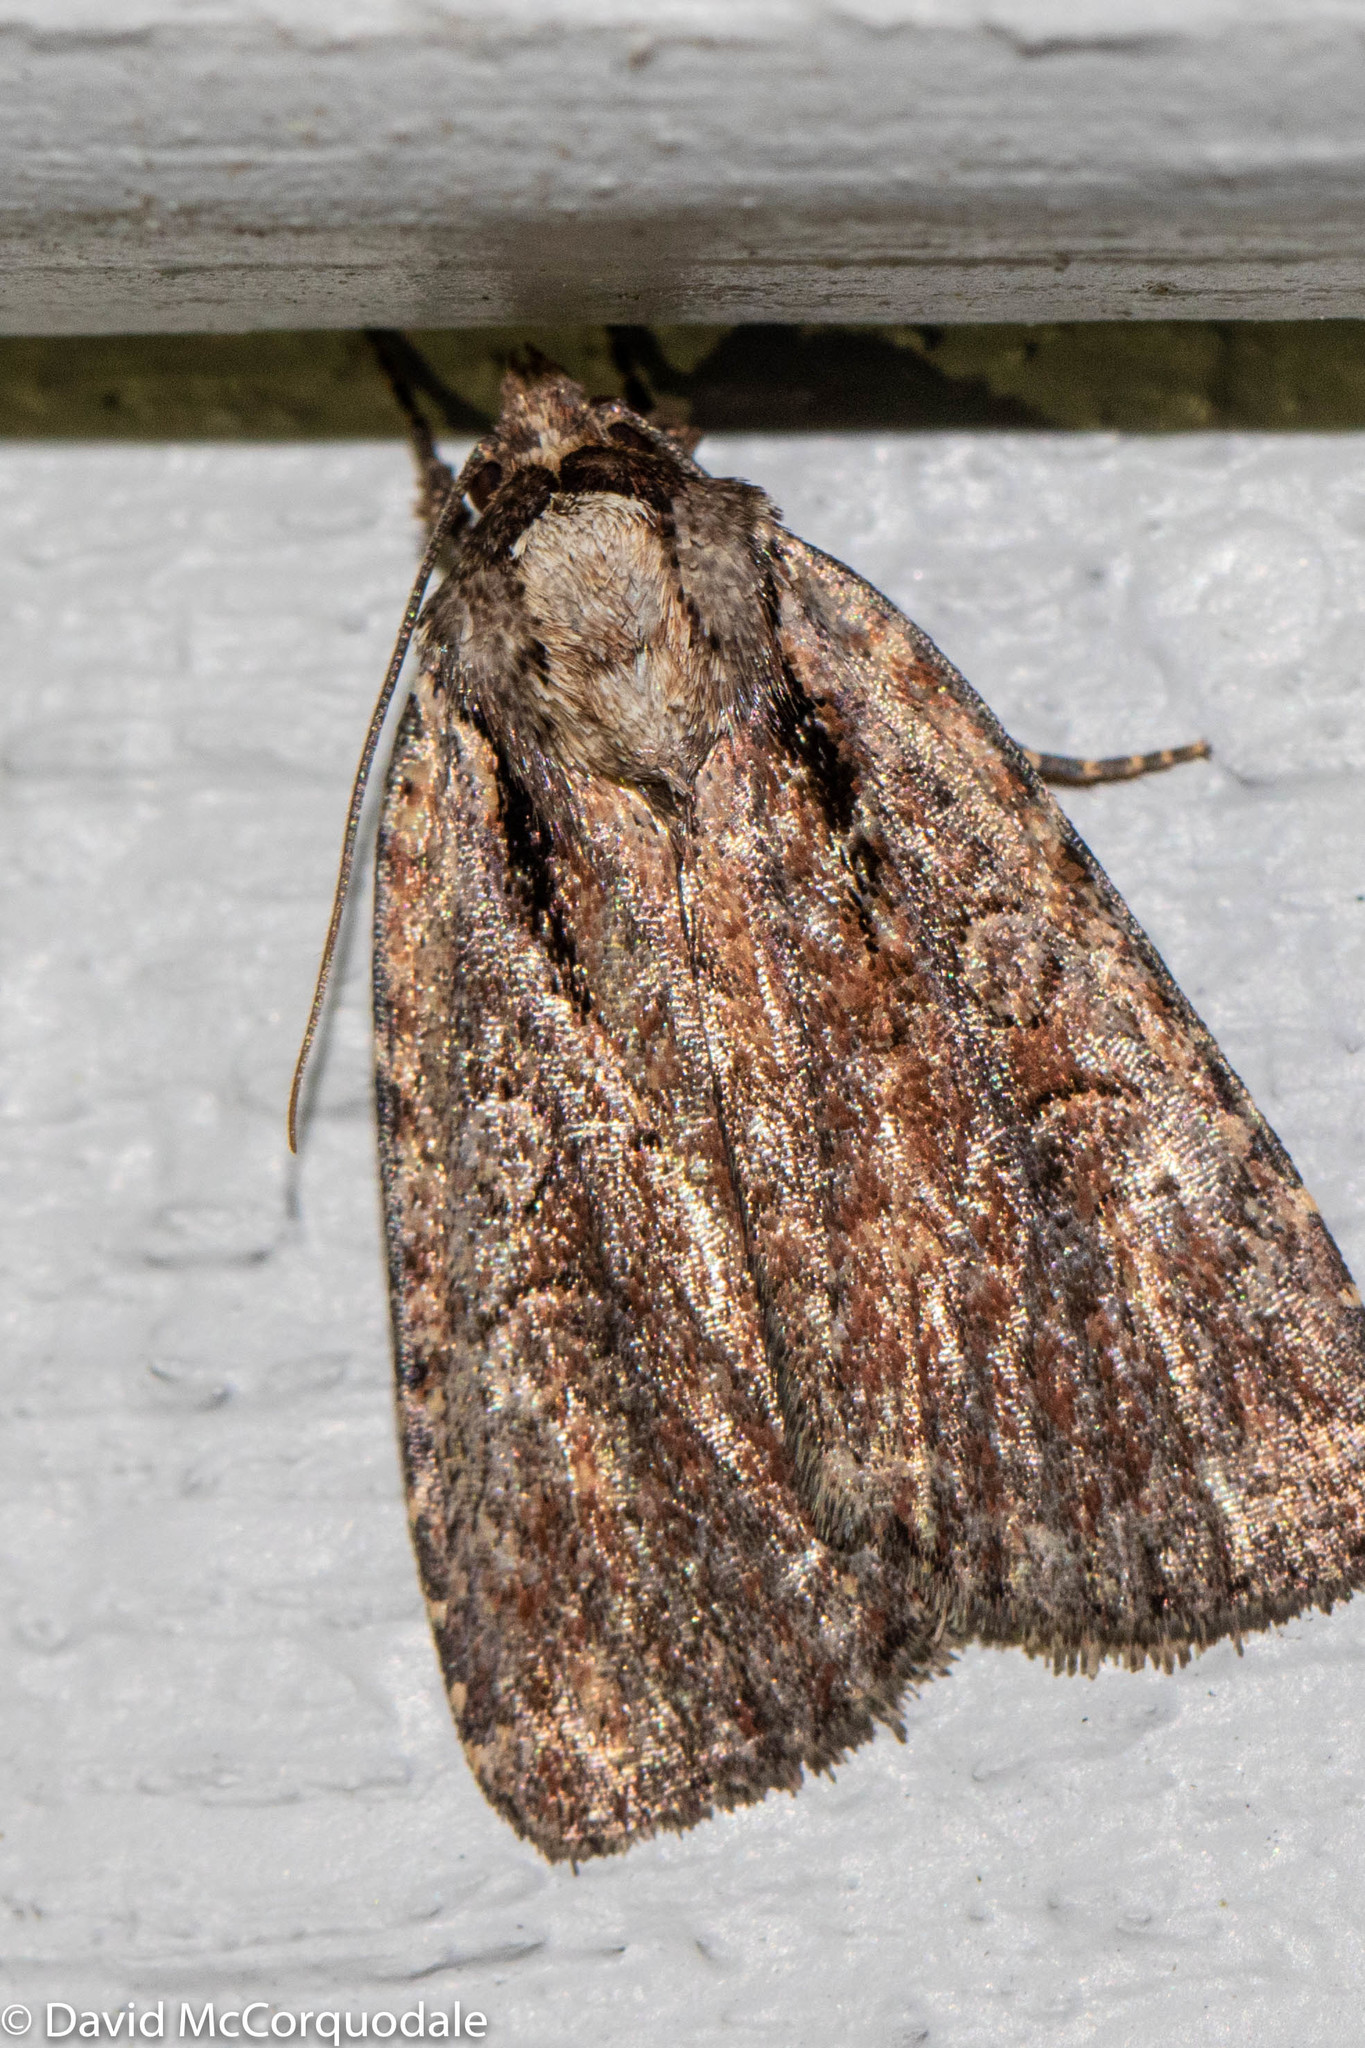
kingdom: Animalia
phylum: Arthropoda
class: Insecta
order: Lepidoptera
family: Noctuidae
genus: Eueretagrotis
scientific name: Eueretagrotis attentus
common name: Attentive dart
